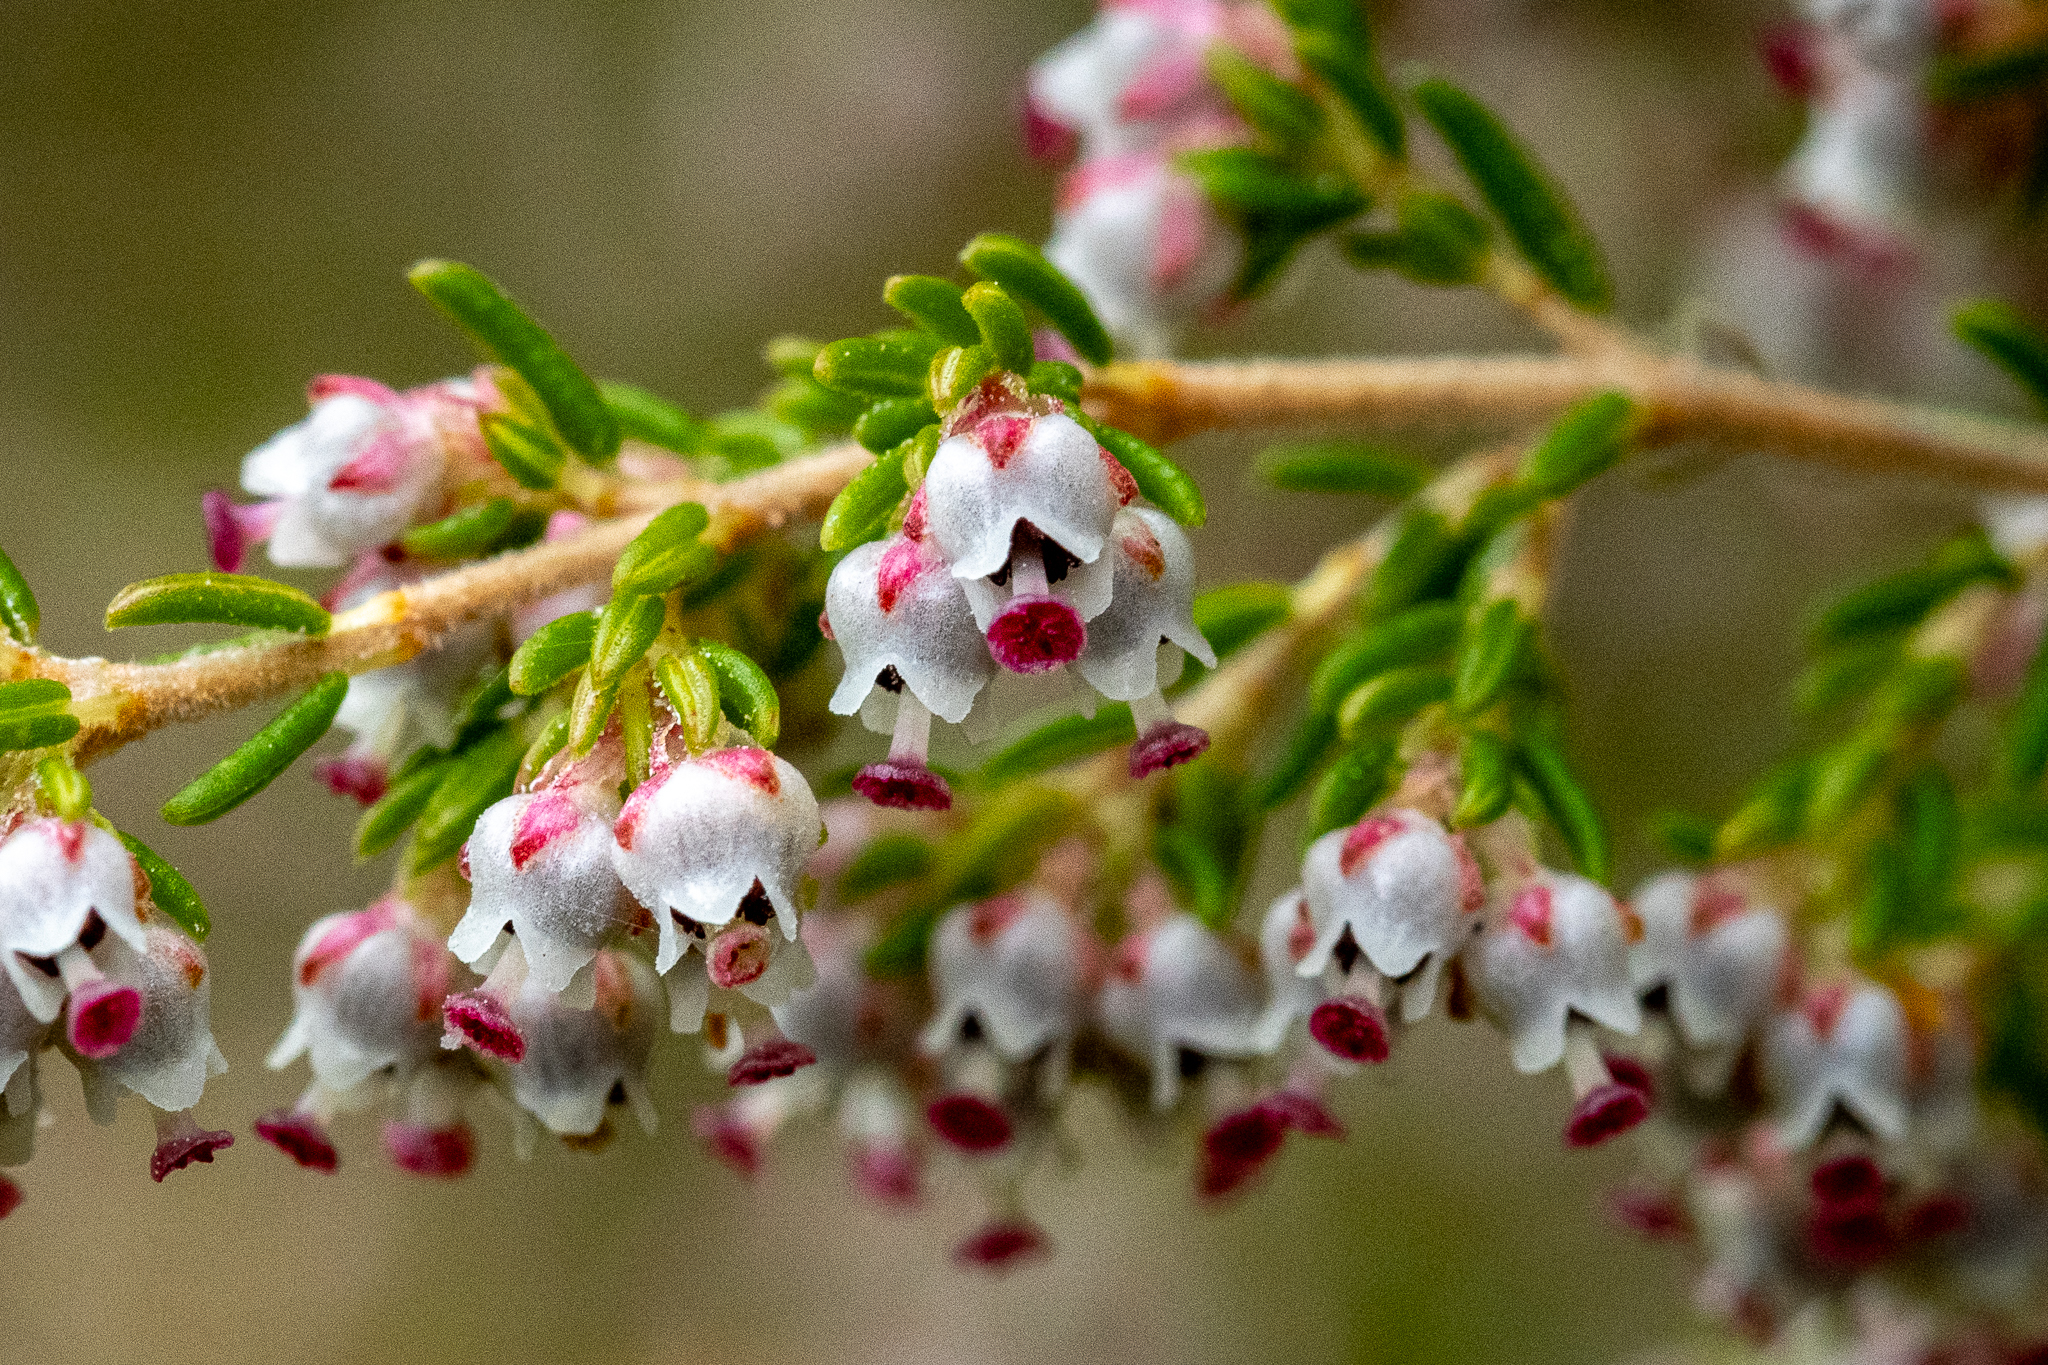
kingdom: Plantae
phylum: Tracheophyta
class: Magnoliopsida
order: Ericales
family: Ericaceae
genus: Erica
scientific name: Erica hispidula
